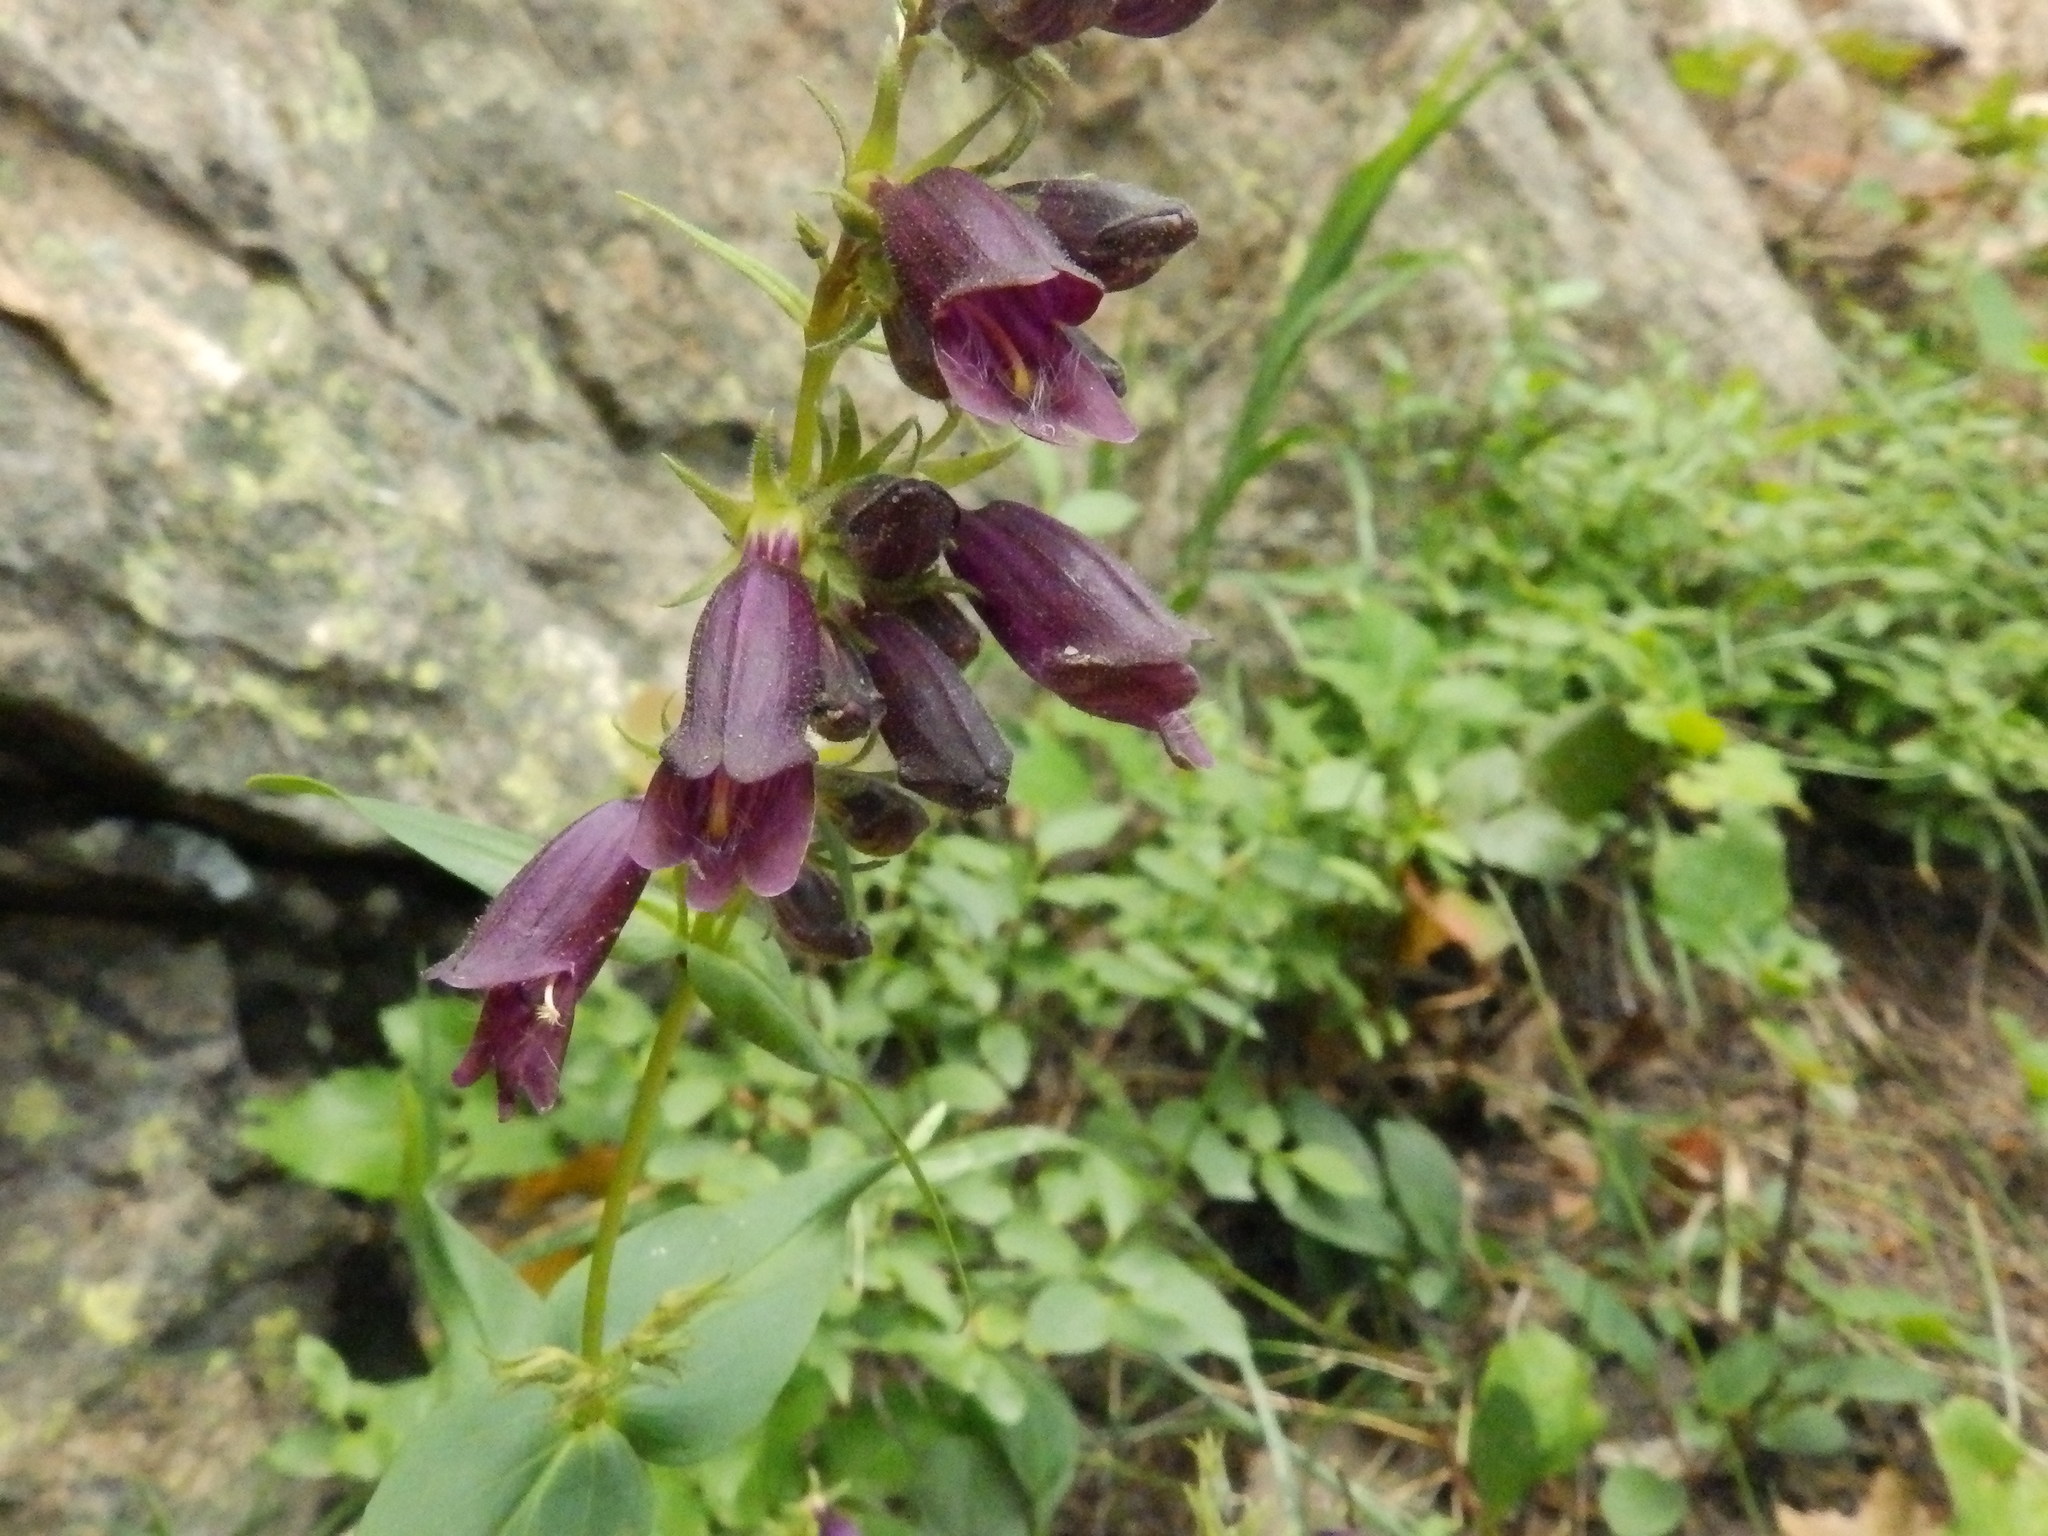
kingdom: Plantae
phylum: Tracheophyta
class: Magnoliopsida
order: Lamiales
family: Plantaginaceae
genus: Penstemon
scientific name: Penstemon whippleanus
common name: Whipple's penstemon
